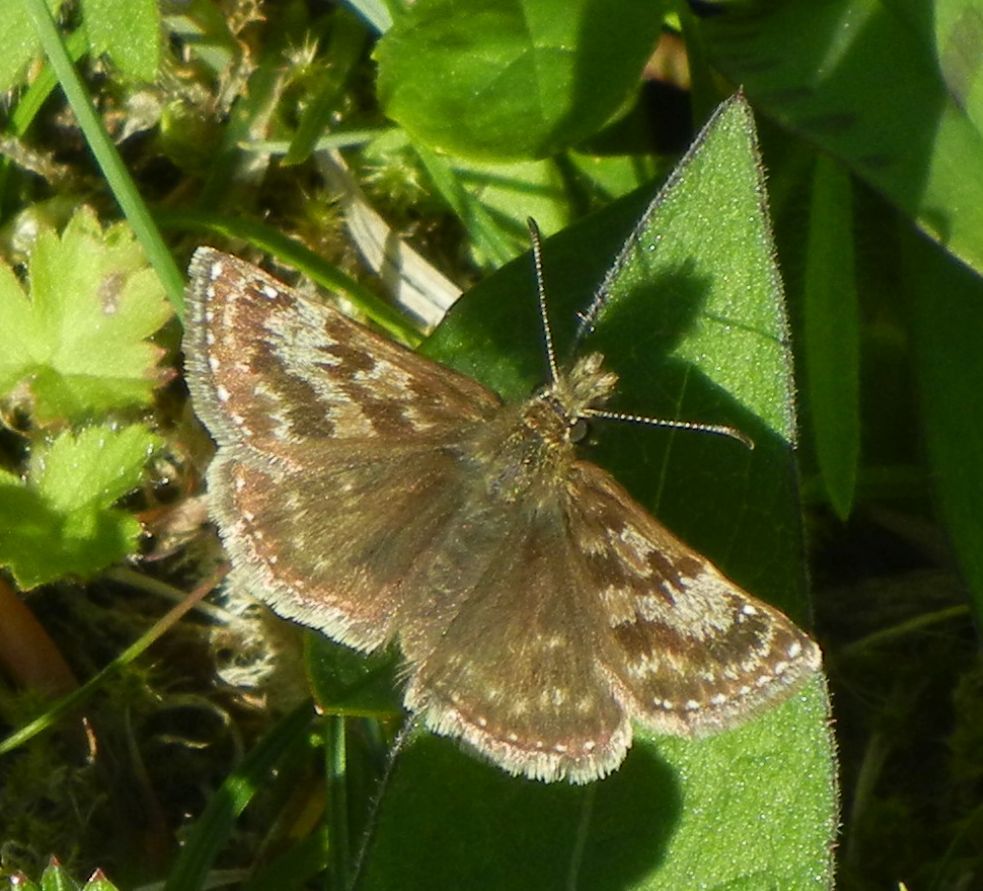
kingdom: Animalia
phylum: Arthropoda
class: Insecta
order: Lepidoptera
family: Hesperiidae
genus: Erynnis
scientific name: Erynnis tages
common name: Dingy skipper
